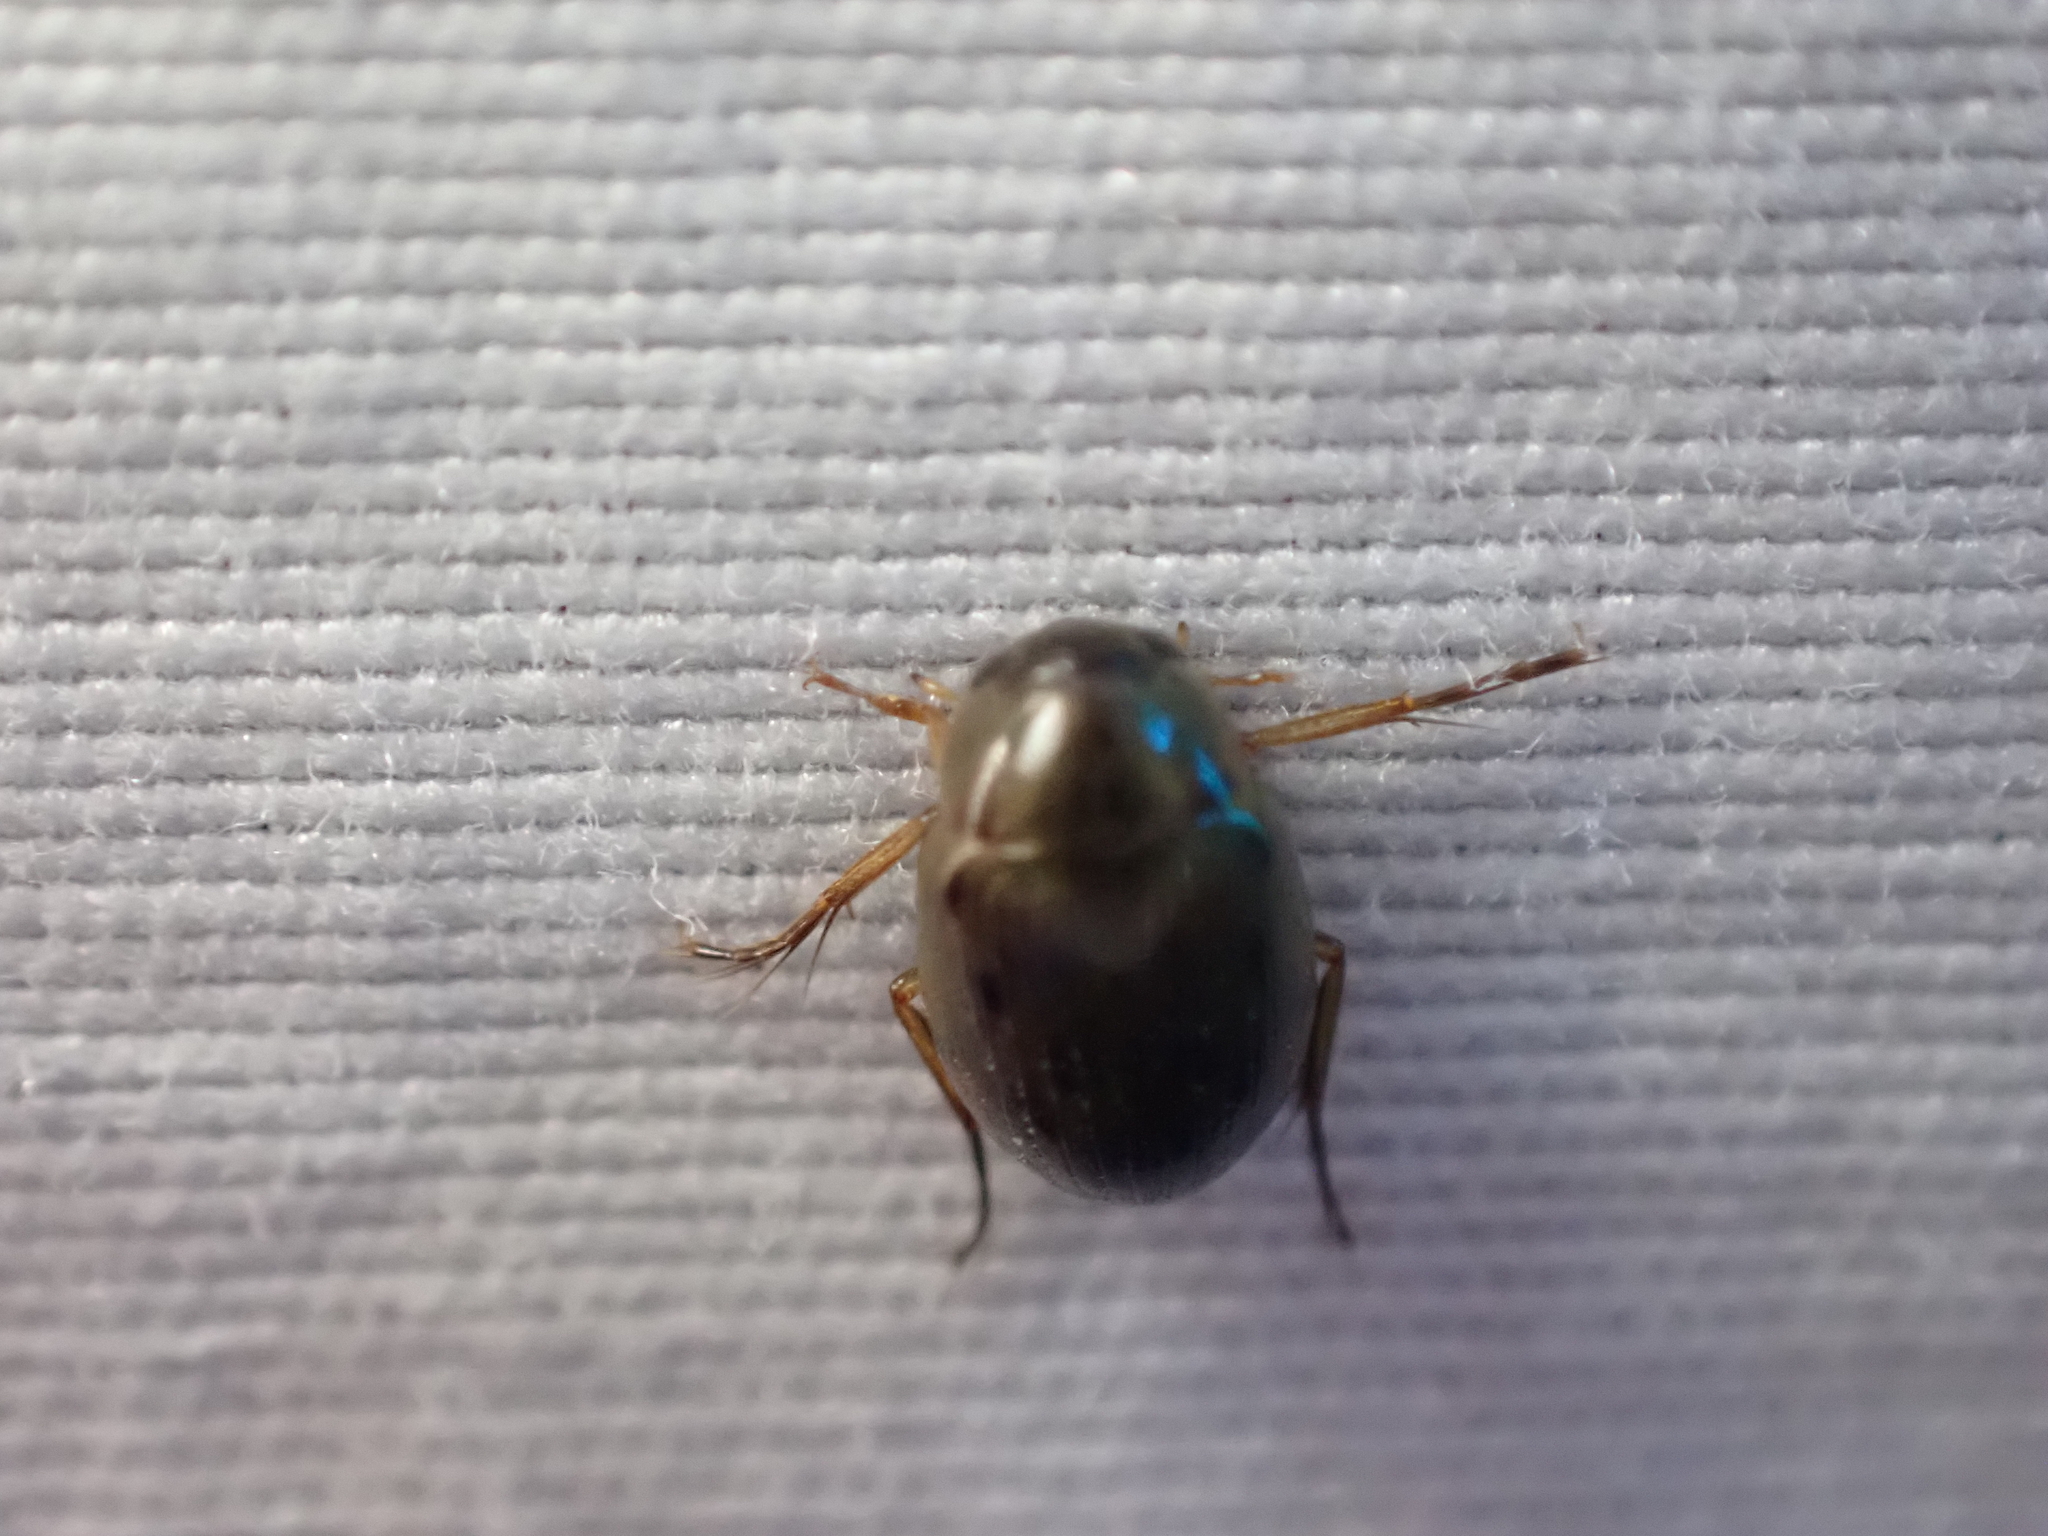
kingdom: Animalia
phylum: Arthropoda
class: Insecta
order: Coleoptera
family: Hydrophilidae
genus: Berosus
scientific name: Berosus
